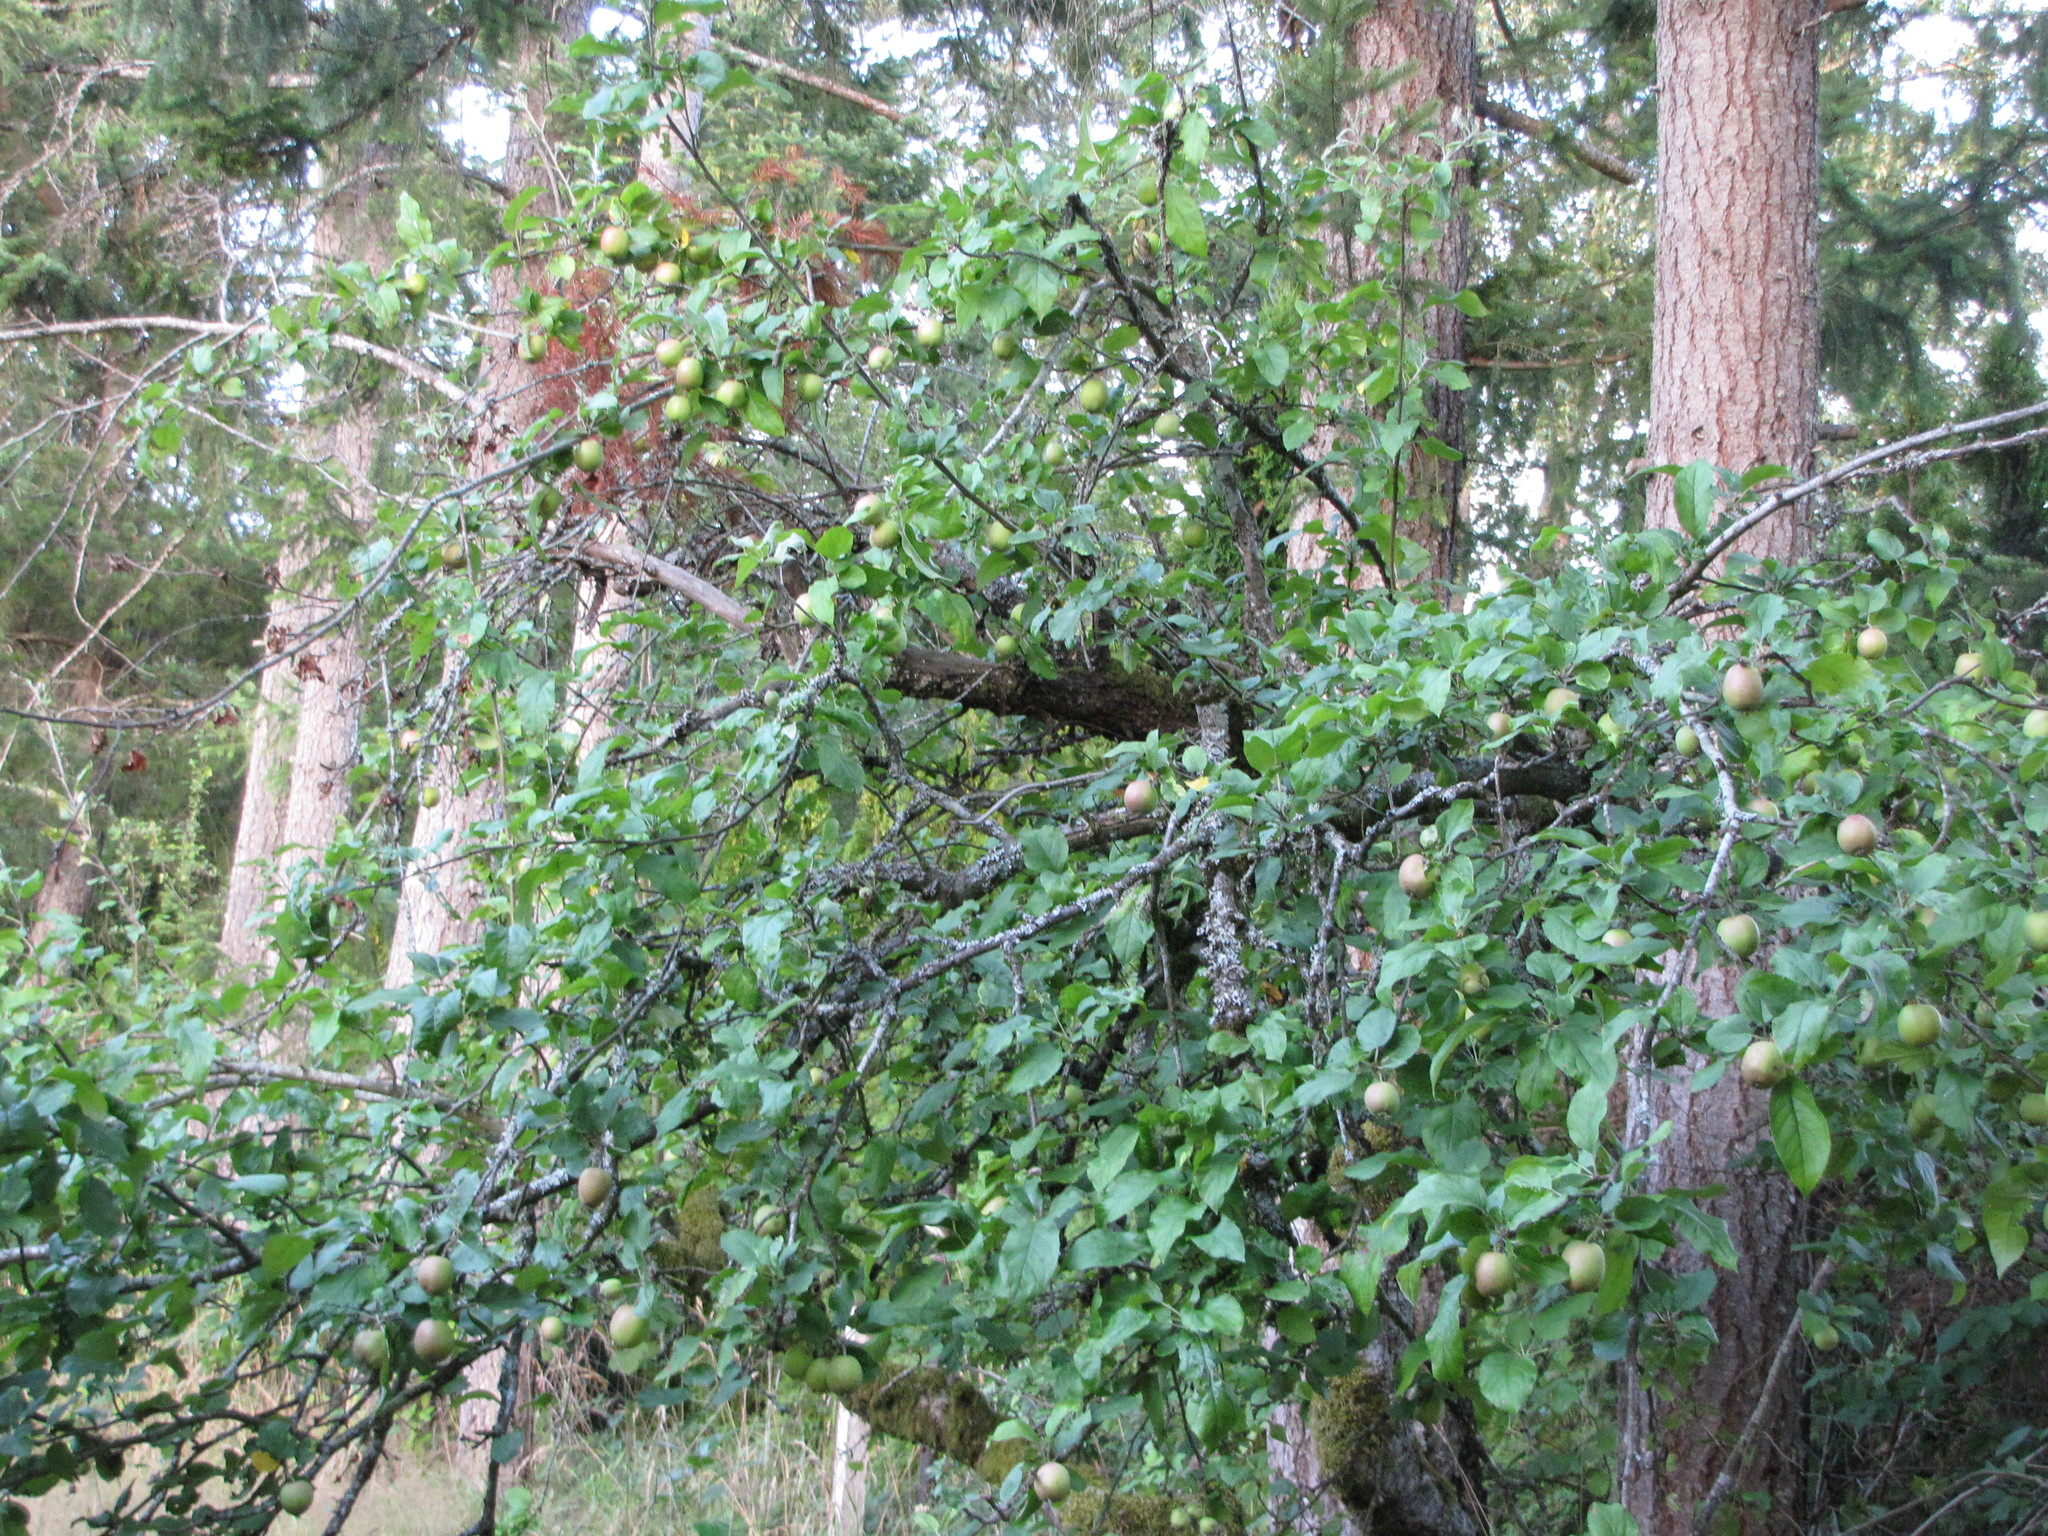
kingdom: Plantae
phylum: Tracheophyta
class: Magnoliopsida
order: Rosales
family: Rosaceae
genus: Malus
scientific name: Malus domestica
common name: Apple
